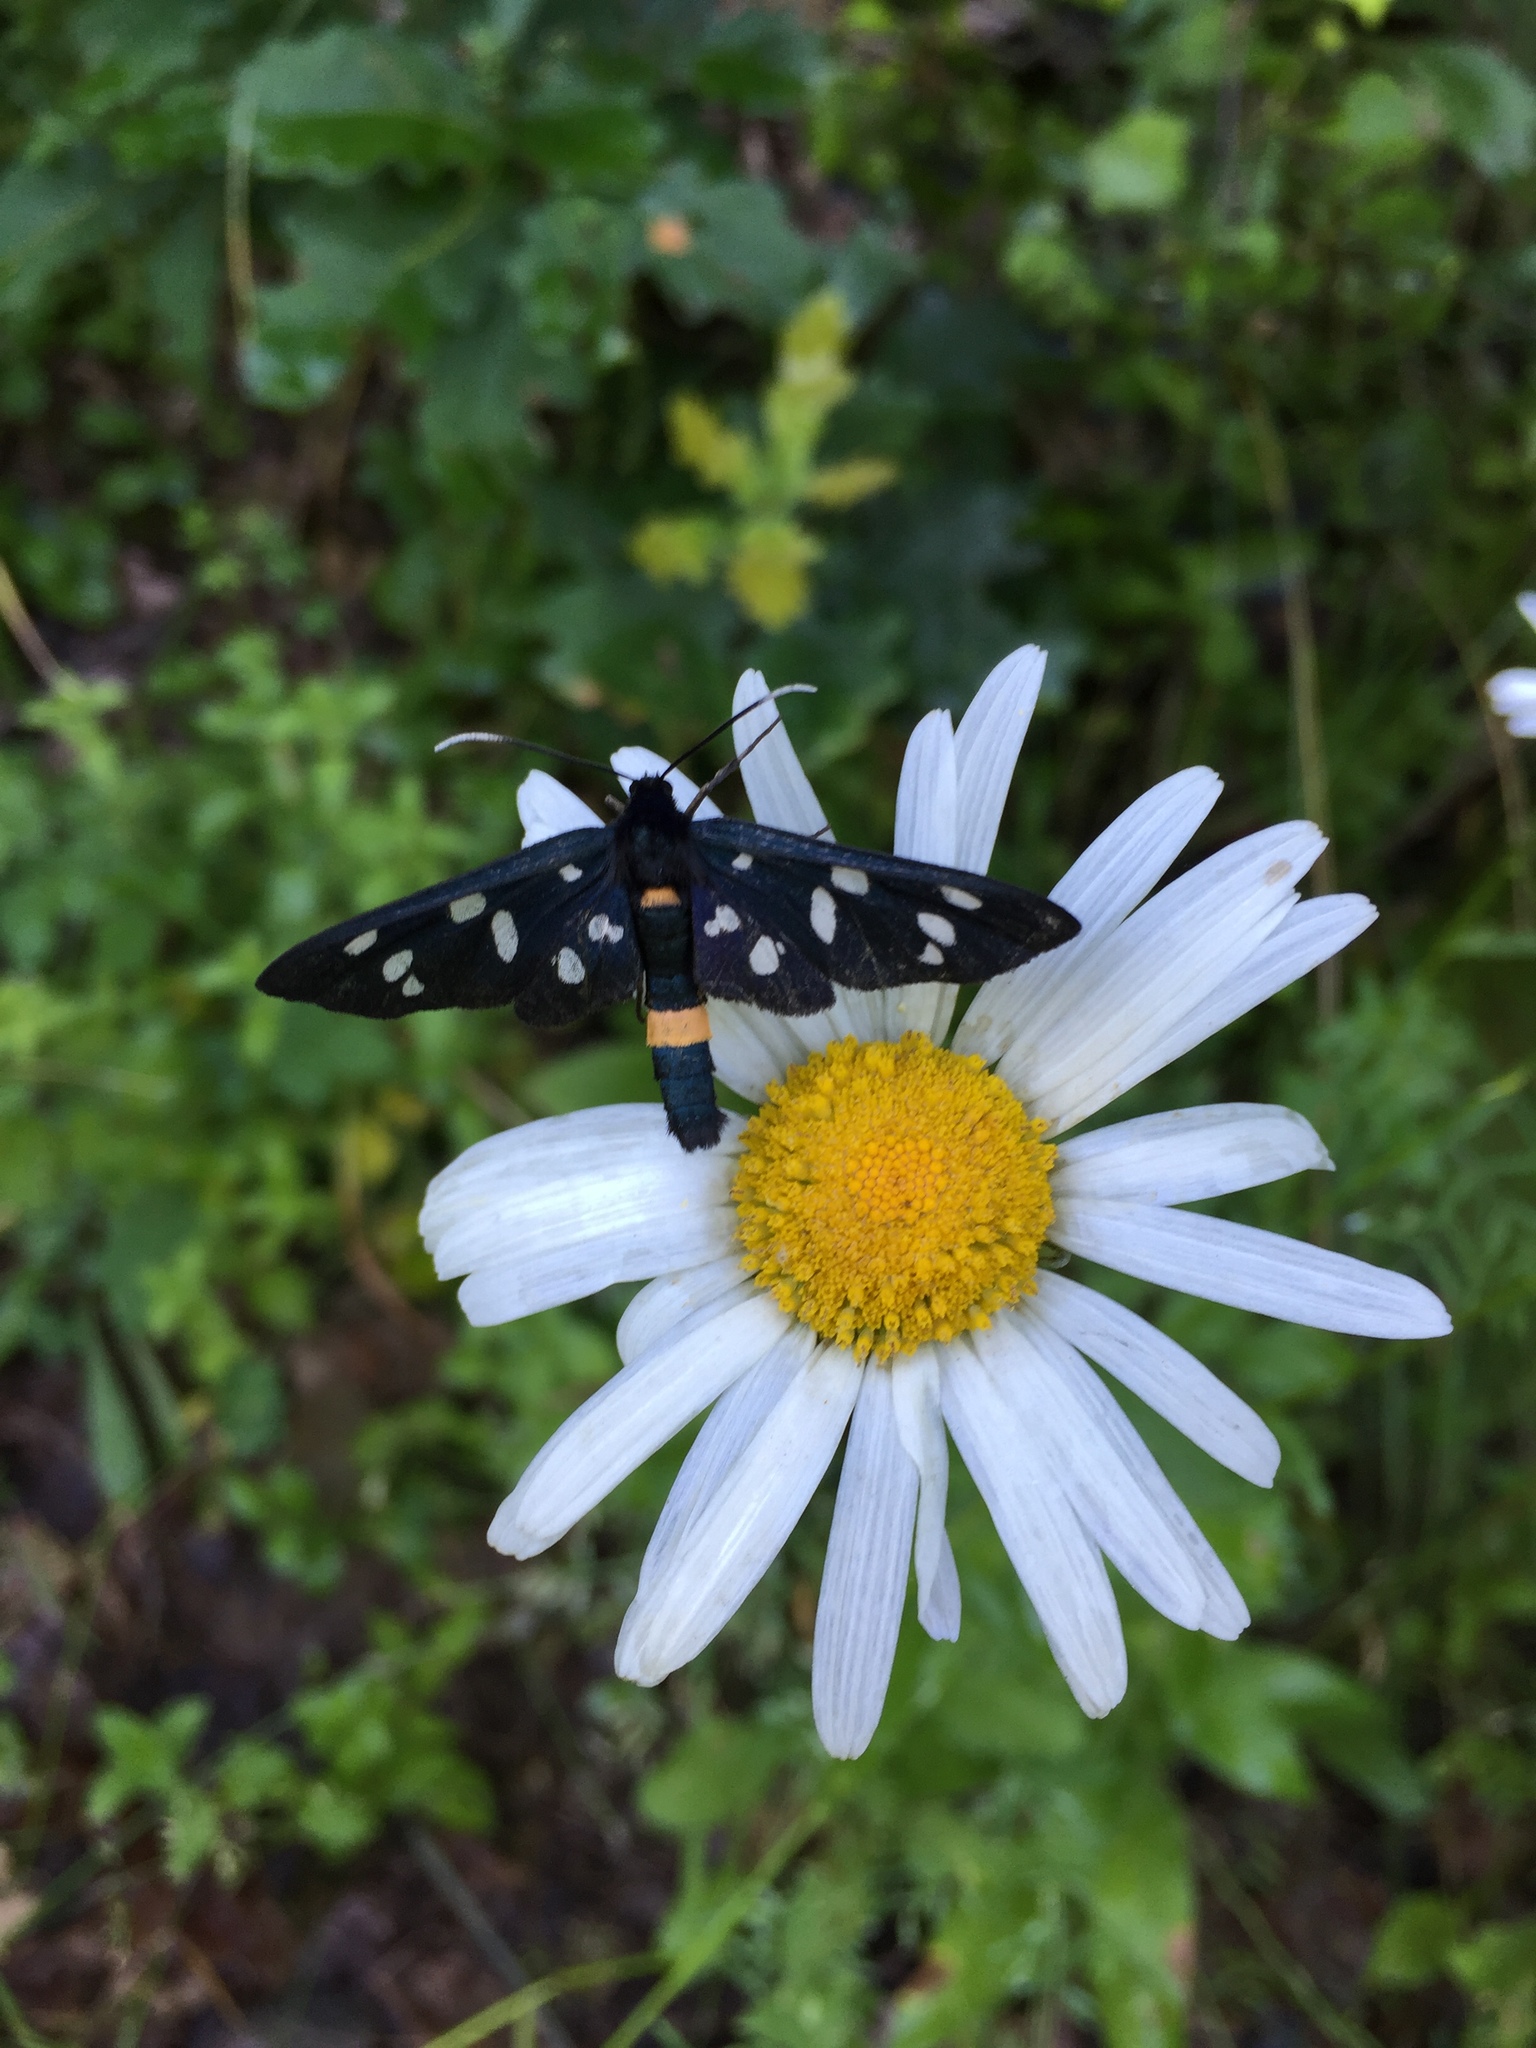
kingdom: Animalia
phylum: Arthropoda
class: Insecta
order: Lepidoptera
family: Erebidae
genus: Amata
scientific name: Amata phegea
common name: Nine-spotted
